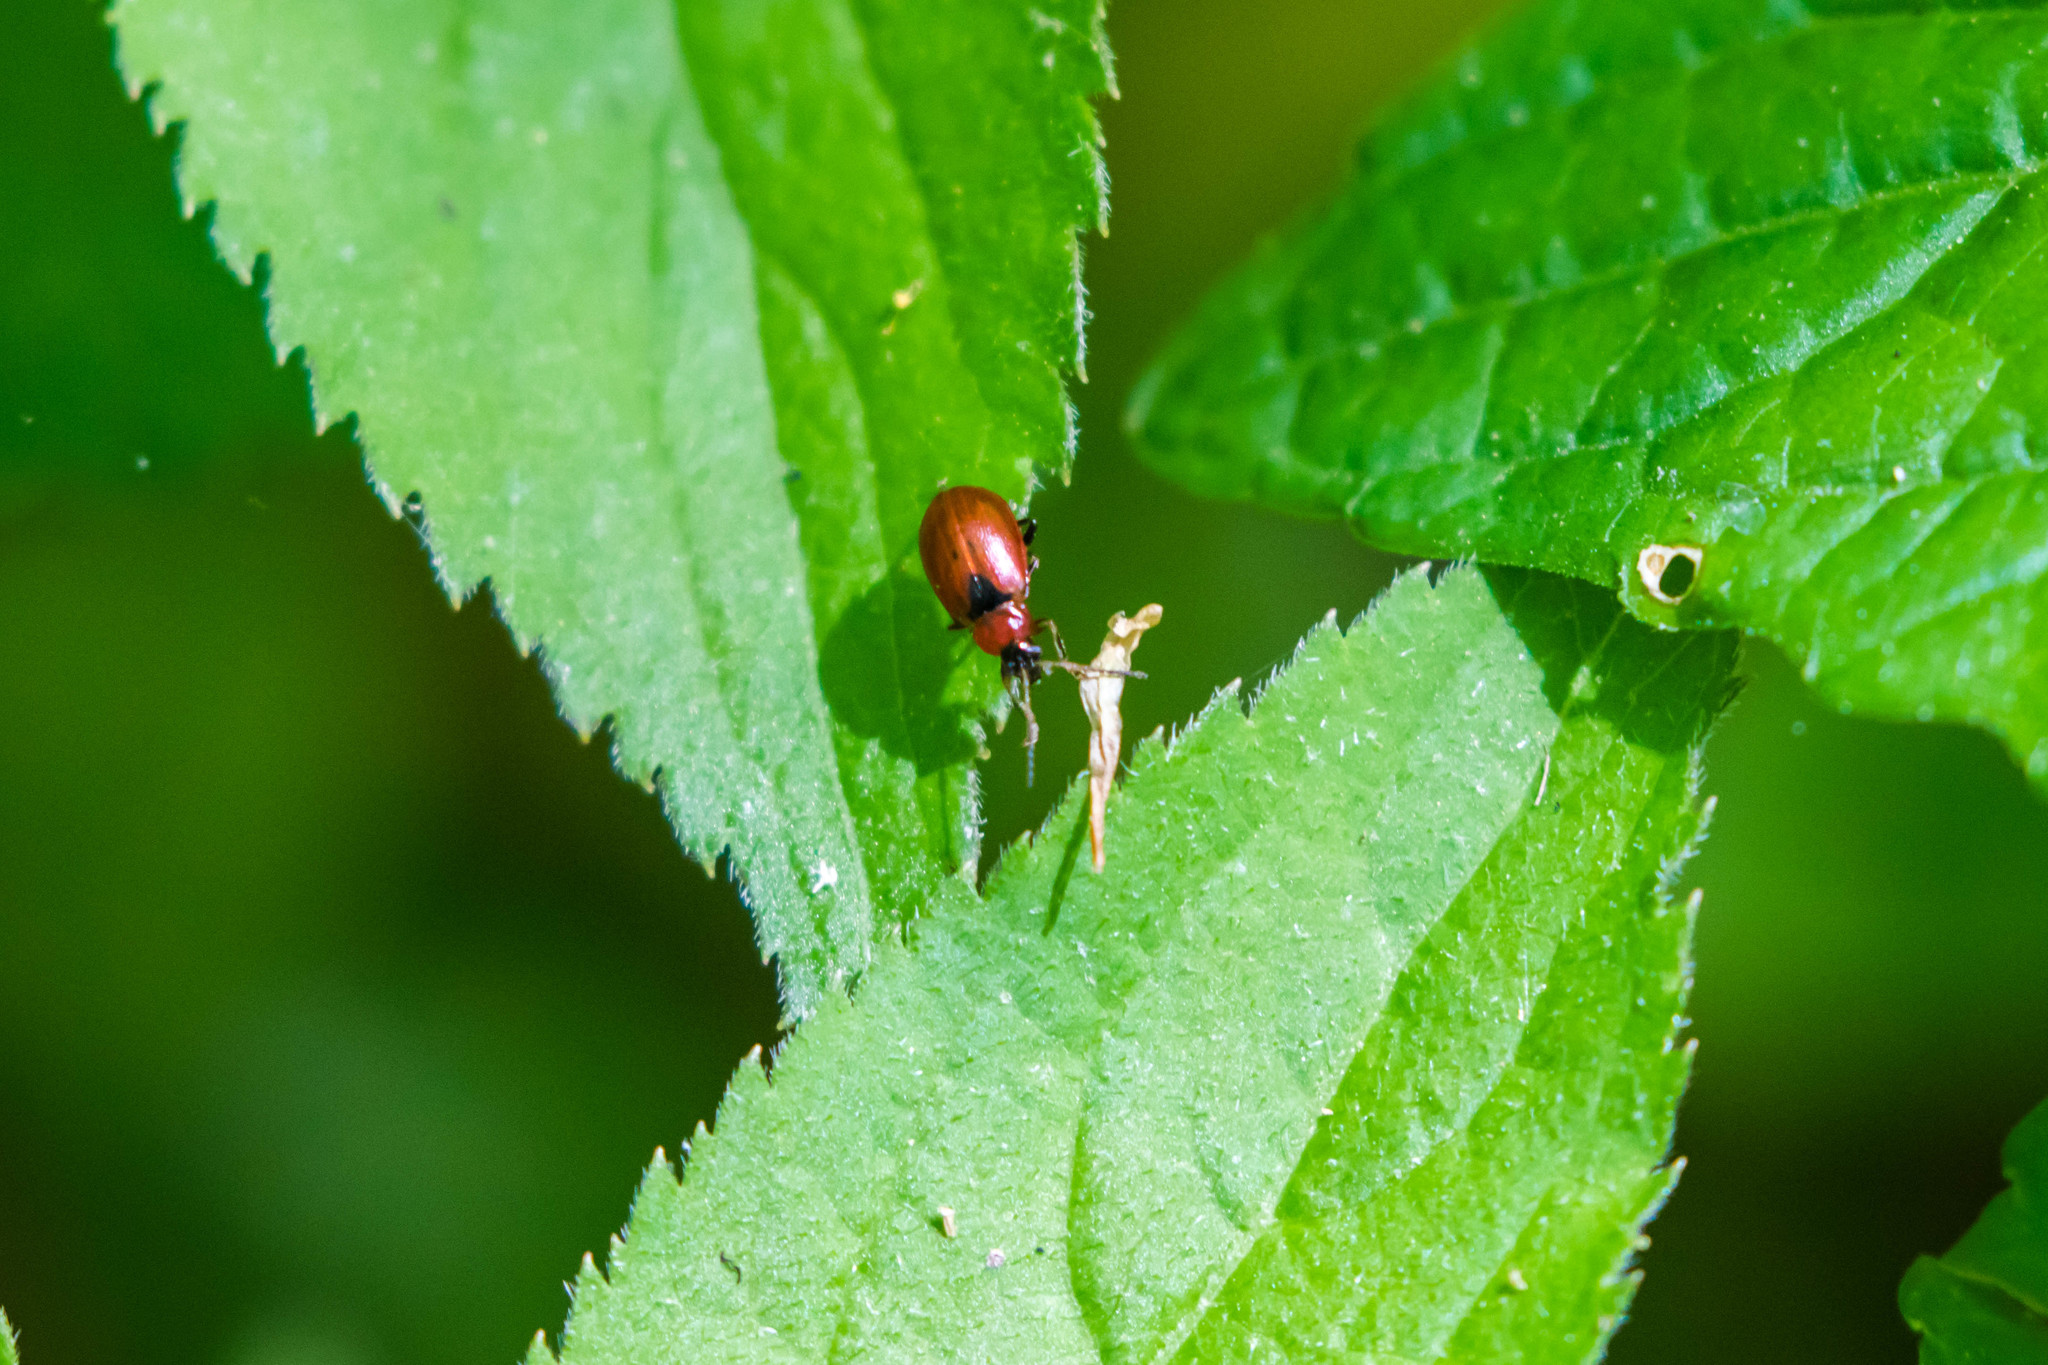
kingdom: Animalia
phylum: Arthropoda
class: Insecta
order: Coleoptera
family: Chrysomelidae
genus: Cerotoma
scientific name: Cerotoma trifurcata
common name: Bean leaf beetle
